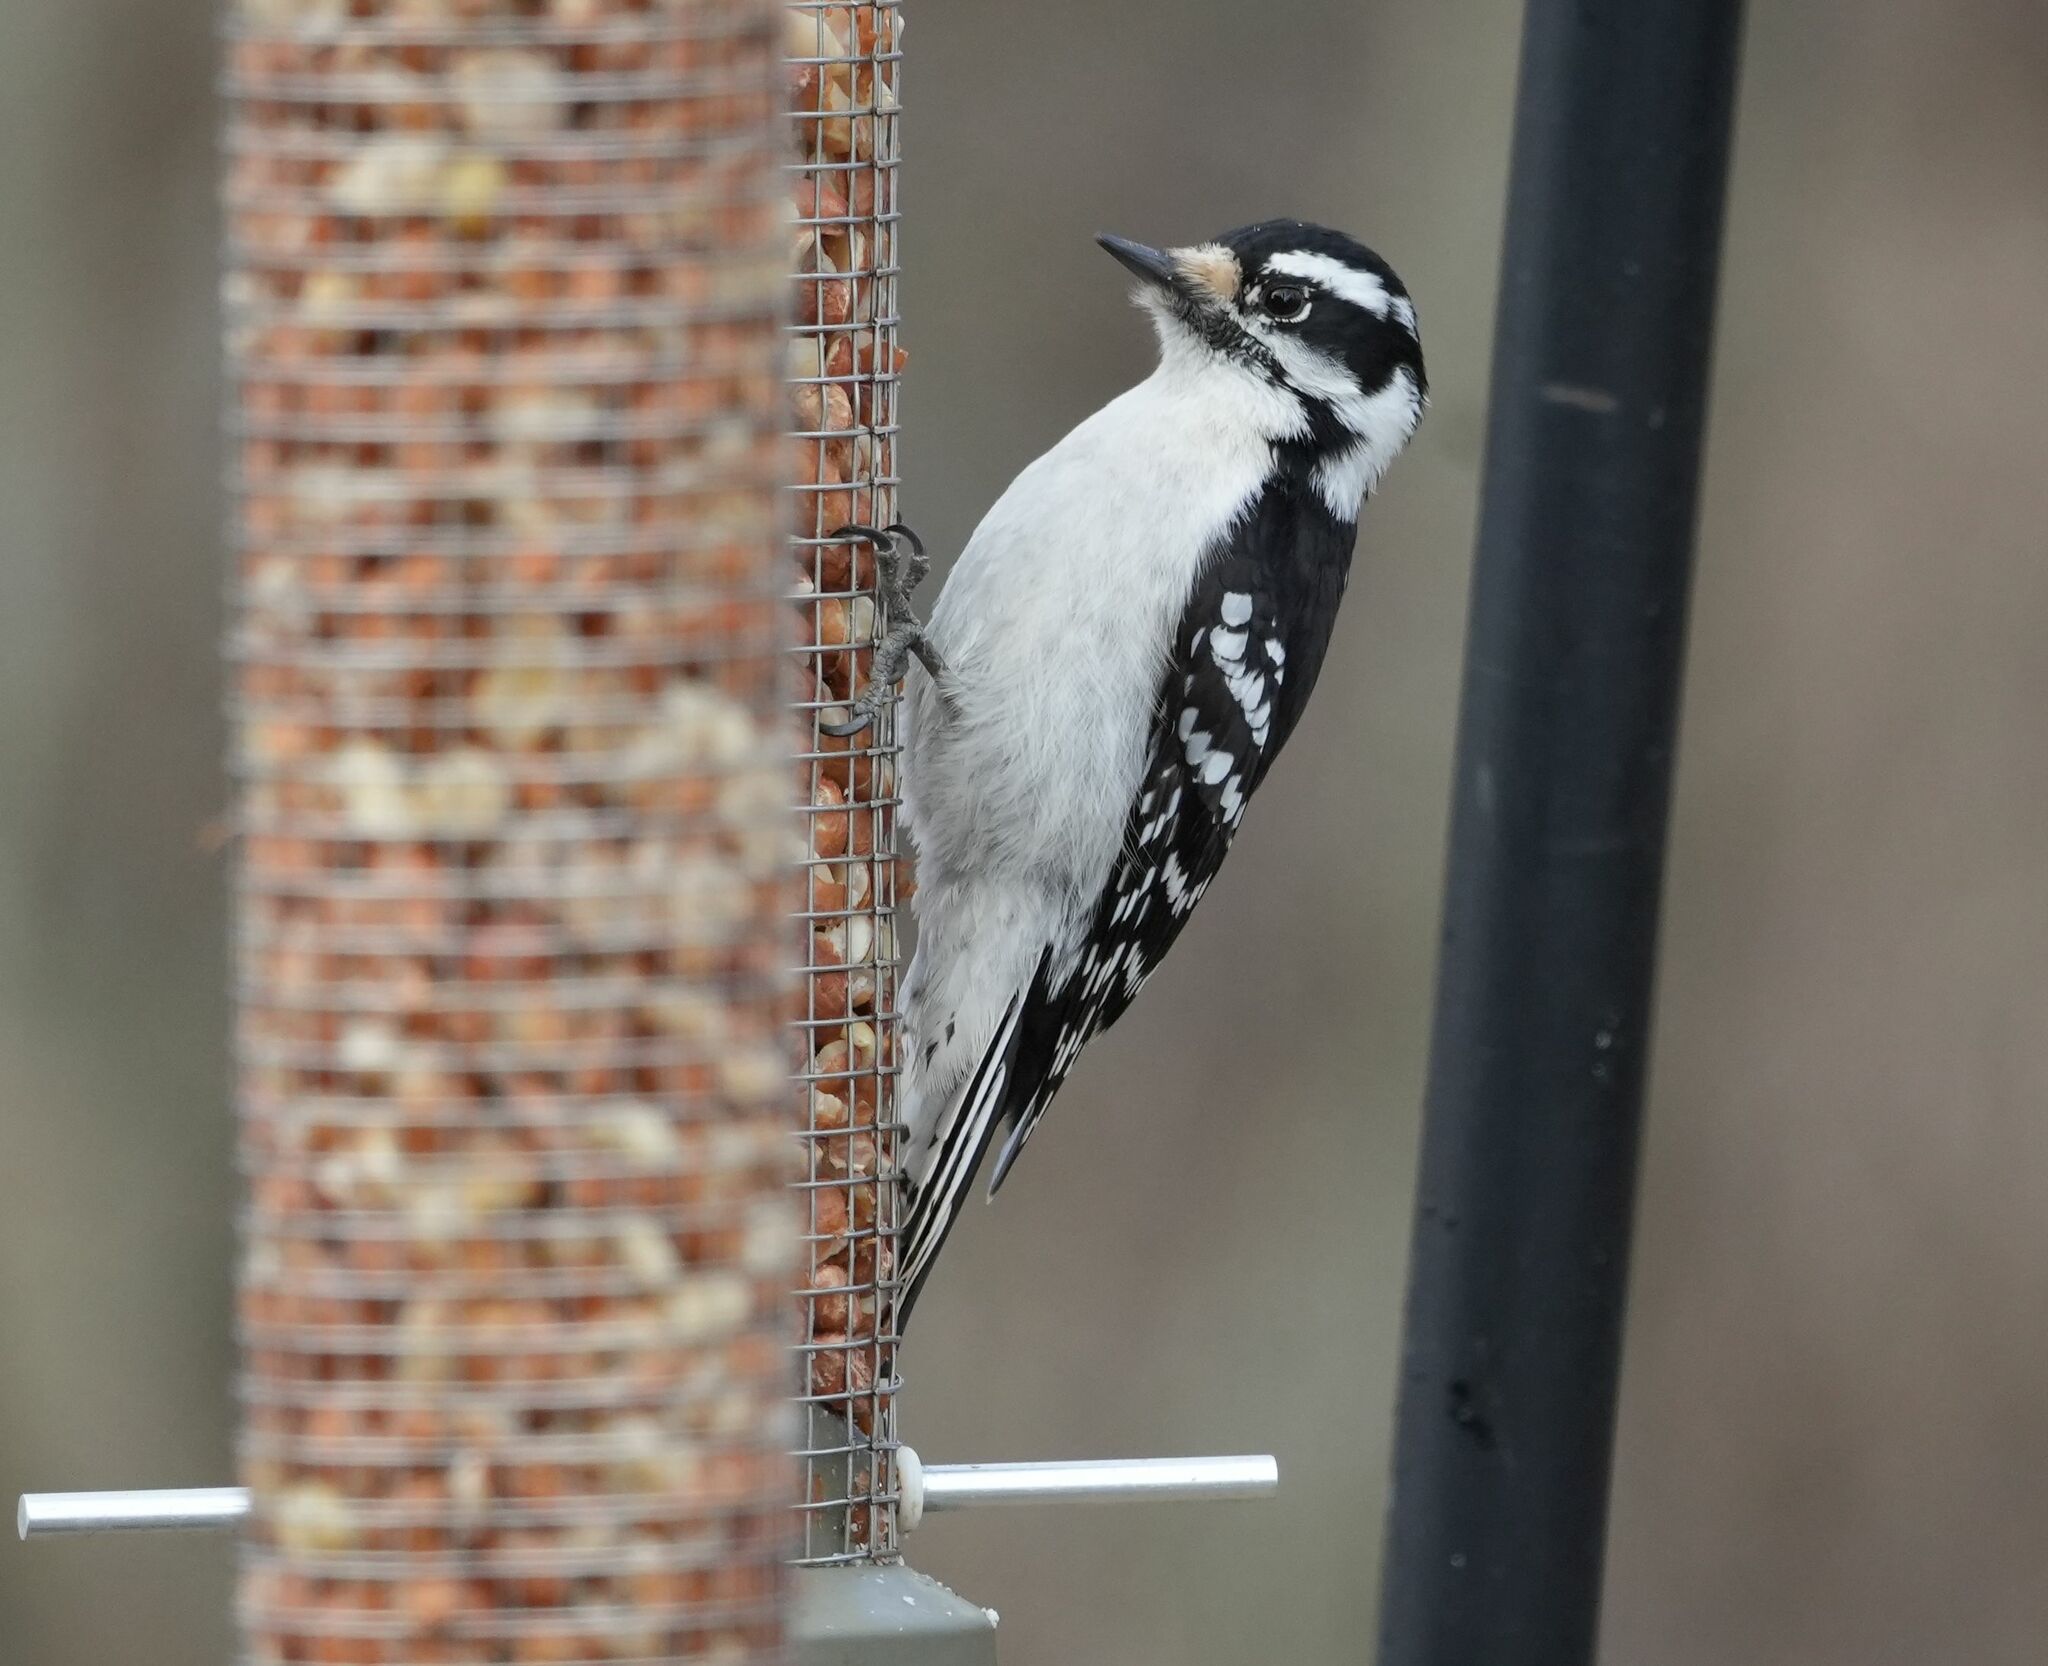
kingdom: Animalia
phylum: Chordata
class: Aves
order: Piciformes
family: Picidae
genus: Dryobates
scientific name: Dryobates pubescens
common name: Downy woodpecker
